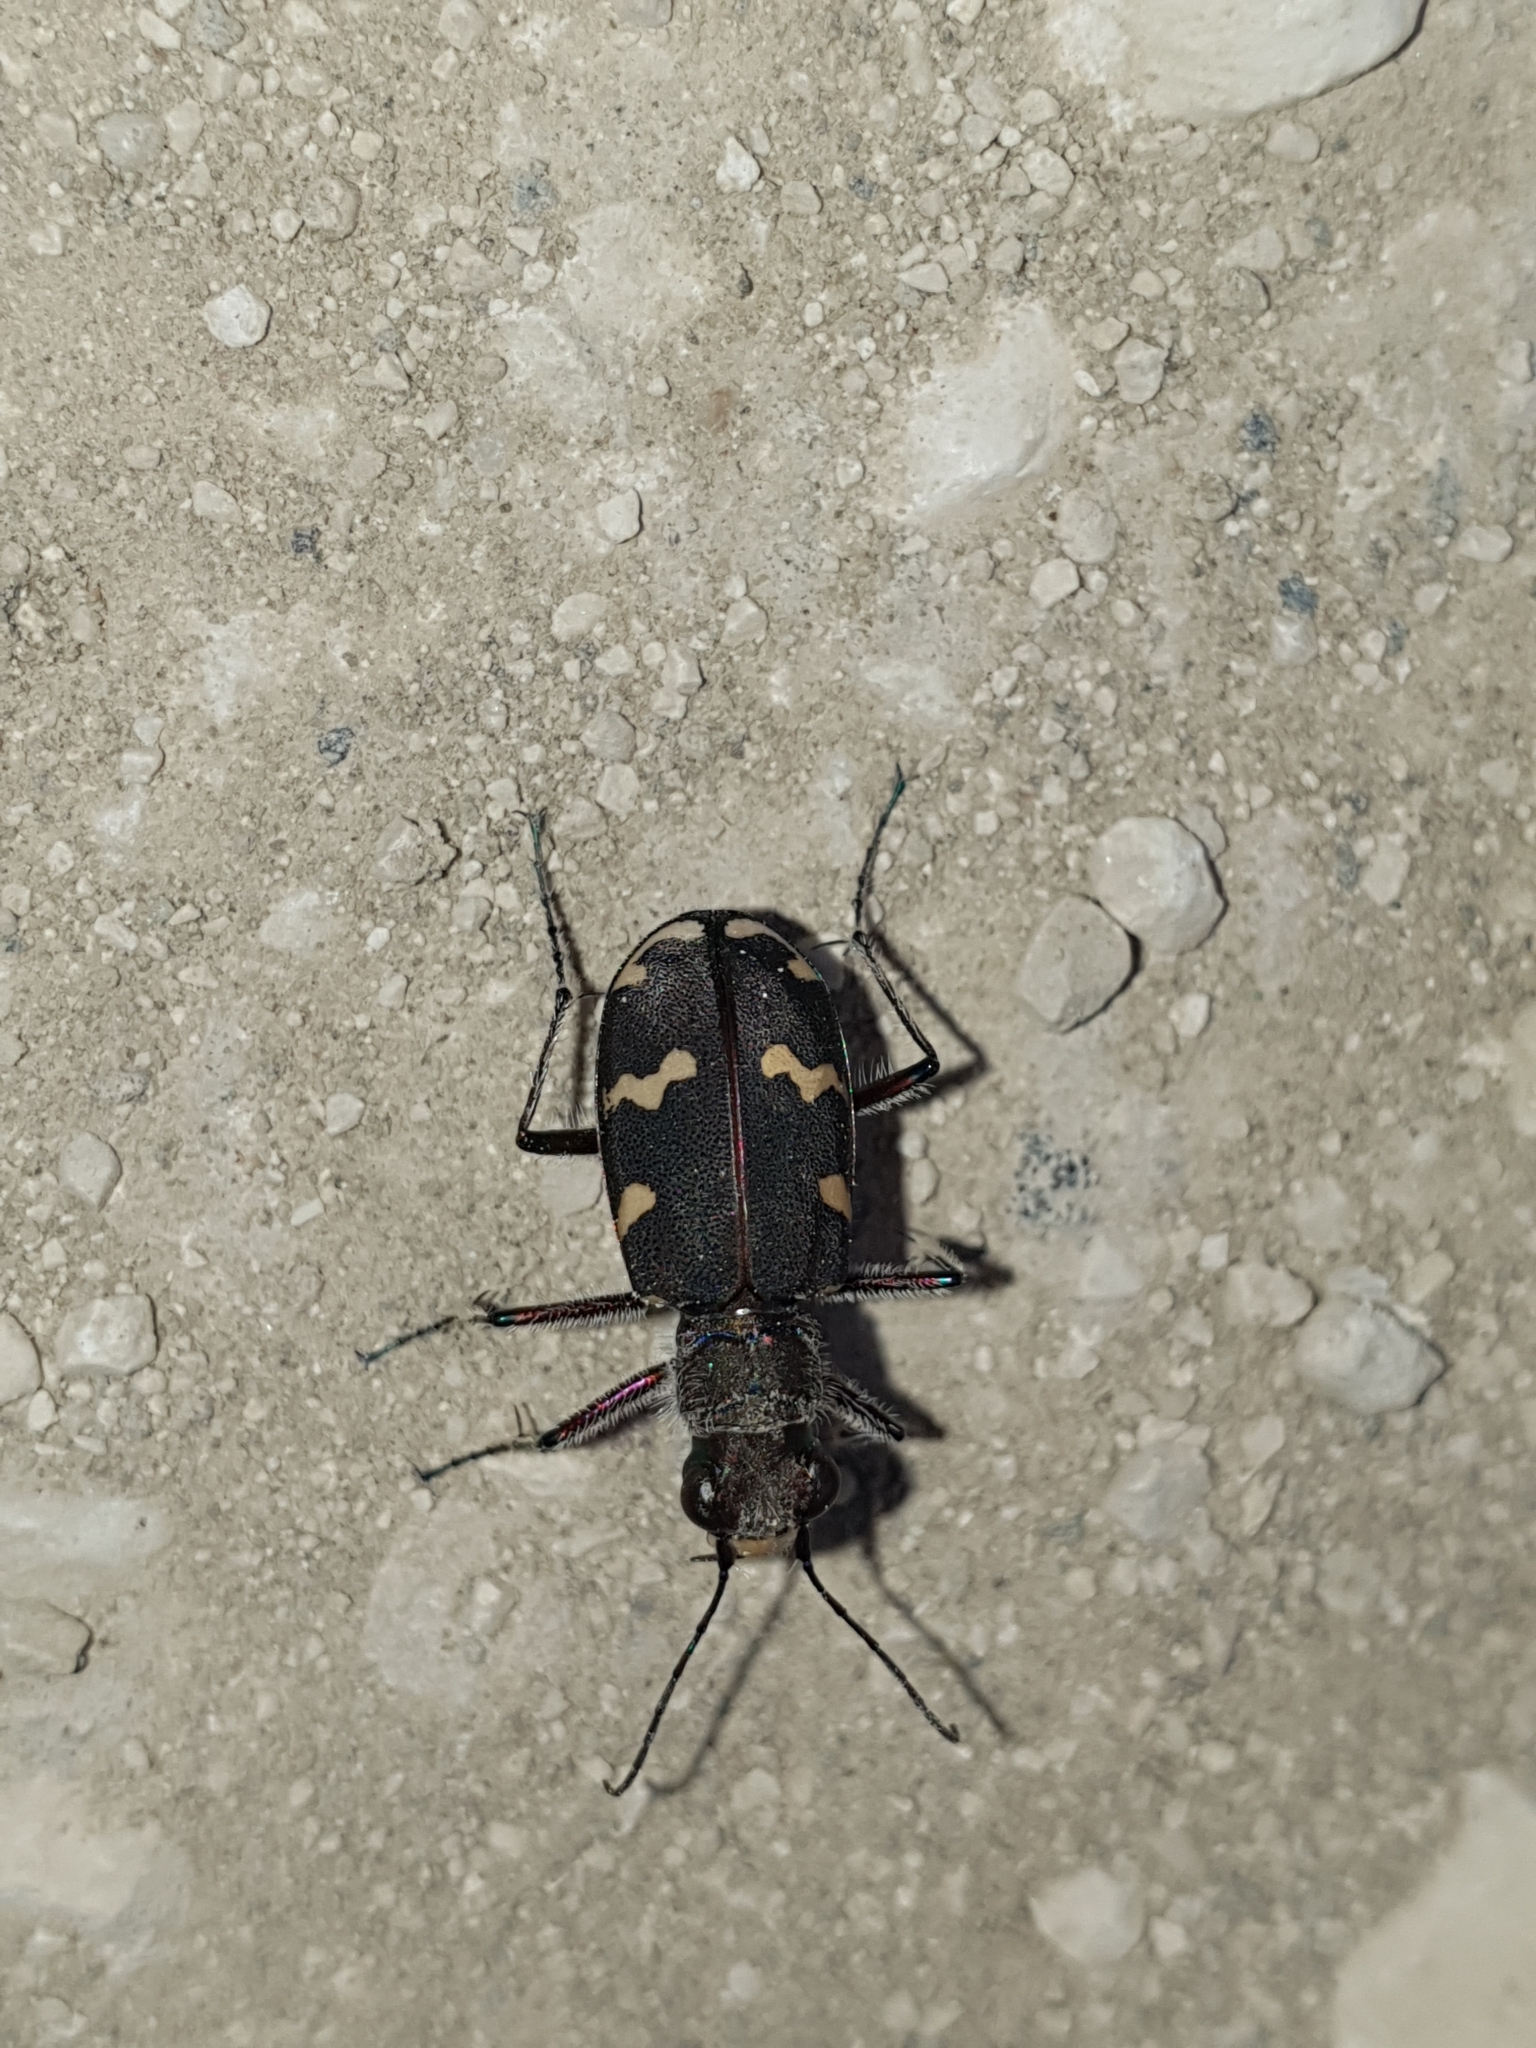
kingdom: Animalia
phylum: Arthropoda
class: Insecta
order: Coleoptera
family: Carabidae
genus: Cicindela
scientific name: Cicindela monticola
